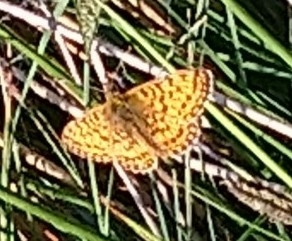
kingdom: Animalia
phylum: Arthropoda
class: Insecta
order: Lepidoptera
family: Nymphalidae
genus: Boloria
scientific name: Boloria selene
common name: Small pearl-bordered fritillary
